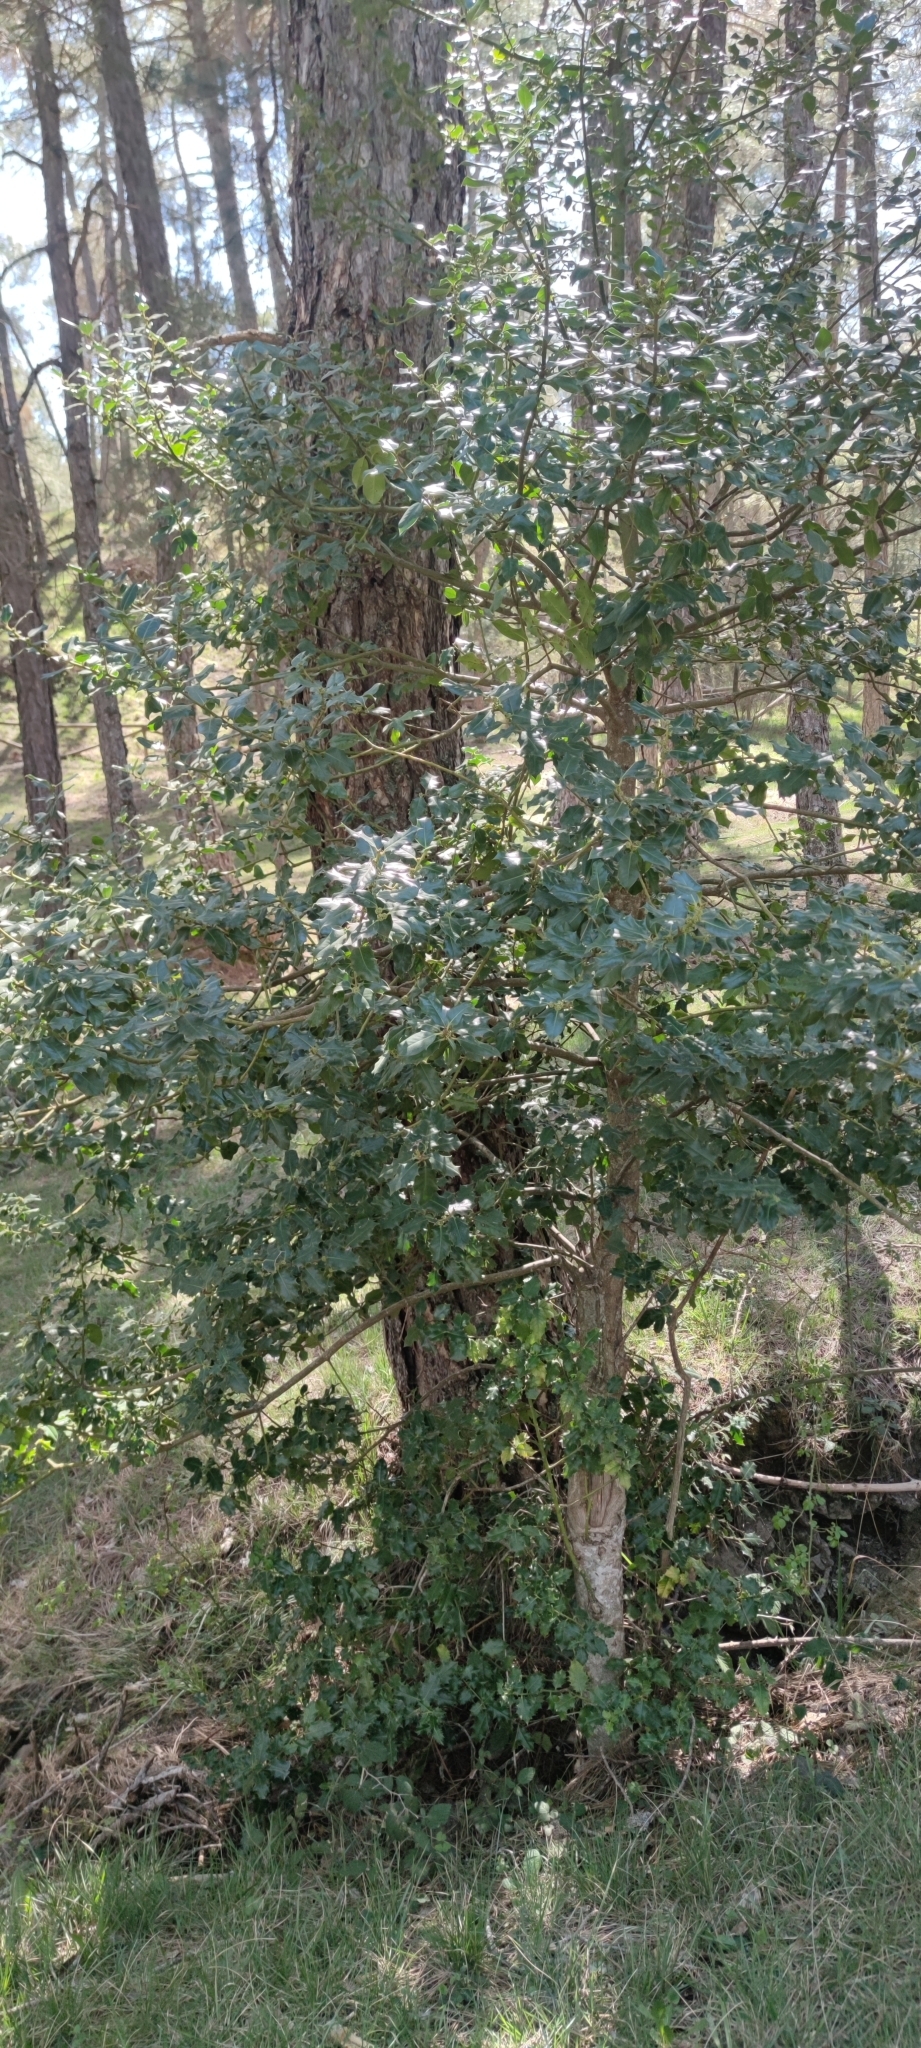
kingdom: Plantae
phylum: Tracheophyta
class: Magnoliopsida
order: Aquifoliales
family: Aquifoliaceae
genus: Ilex
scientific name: Ilex aquifolium
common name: English holly
